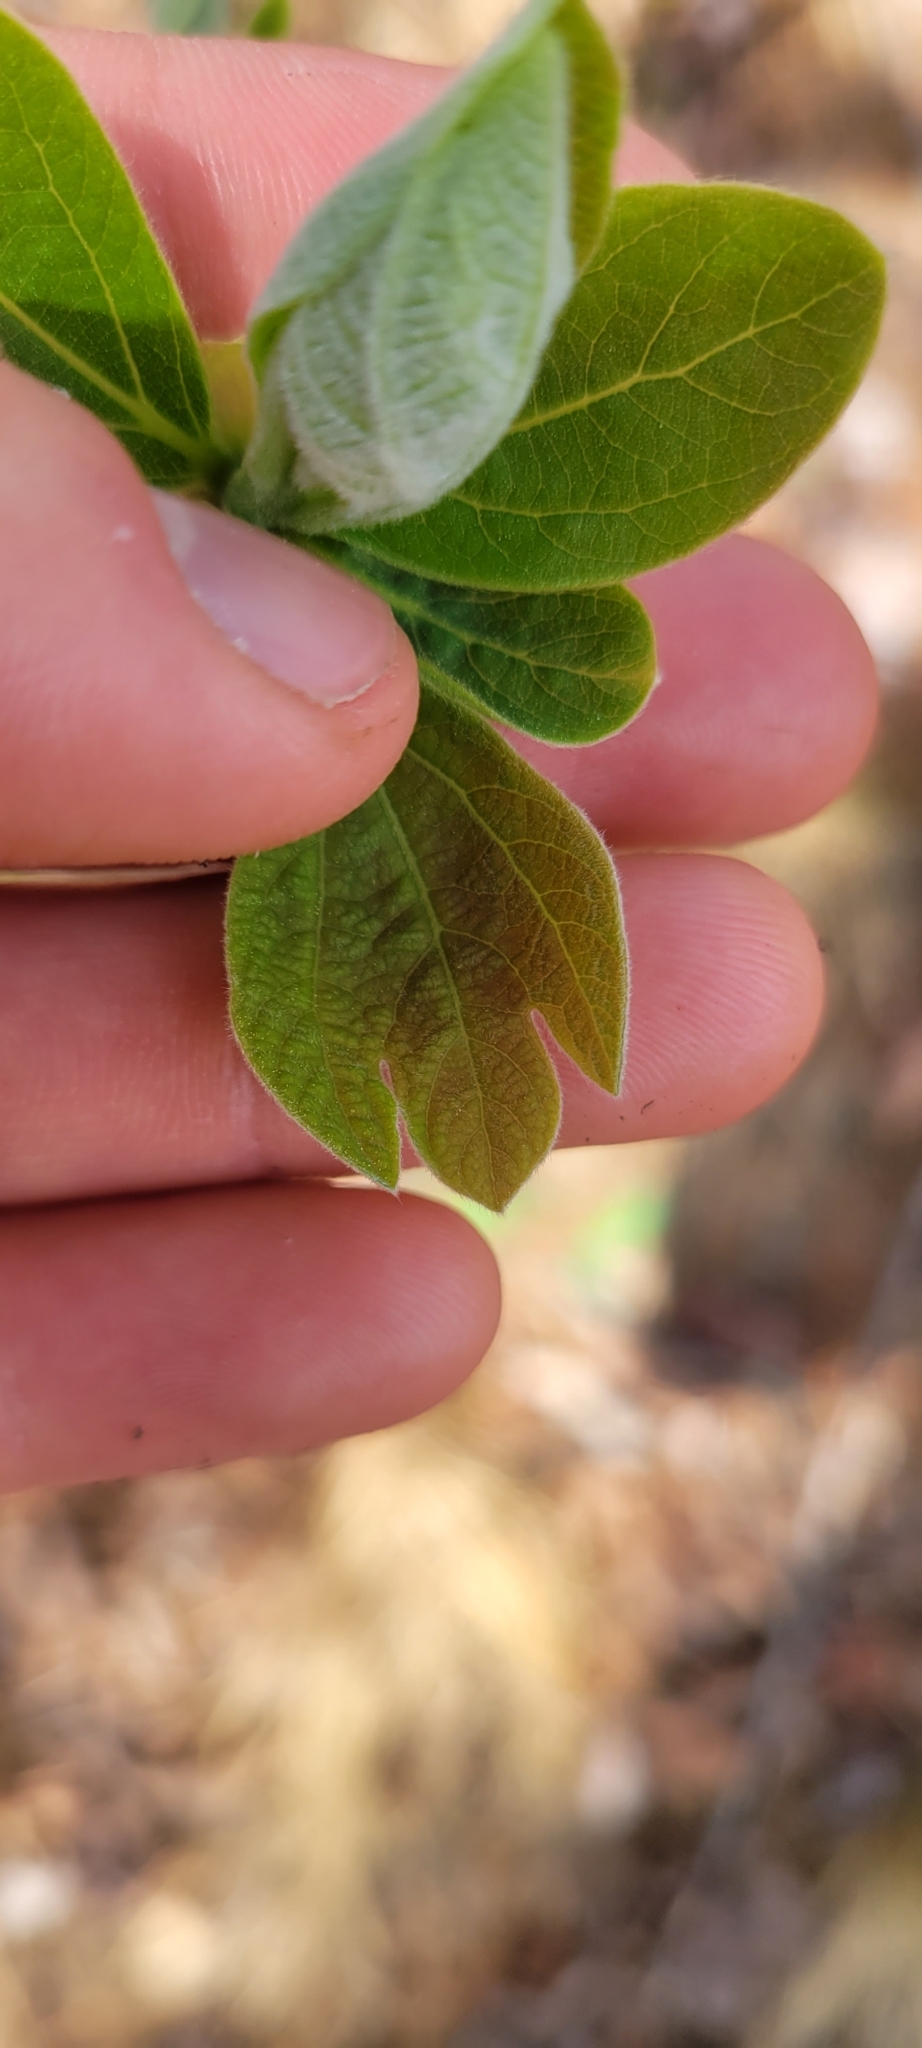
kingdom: Plantae
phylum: Tracheophyta
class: Magnoliopsida
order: Laurales
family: Lauraceae
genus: Sassafras
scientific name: Sassafras albidum
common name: Sassafras
